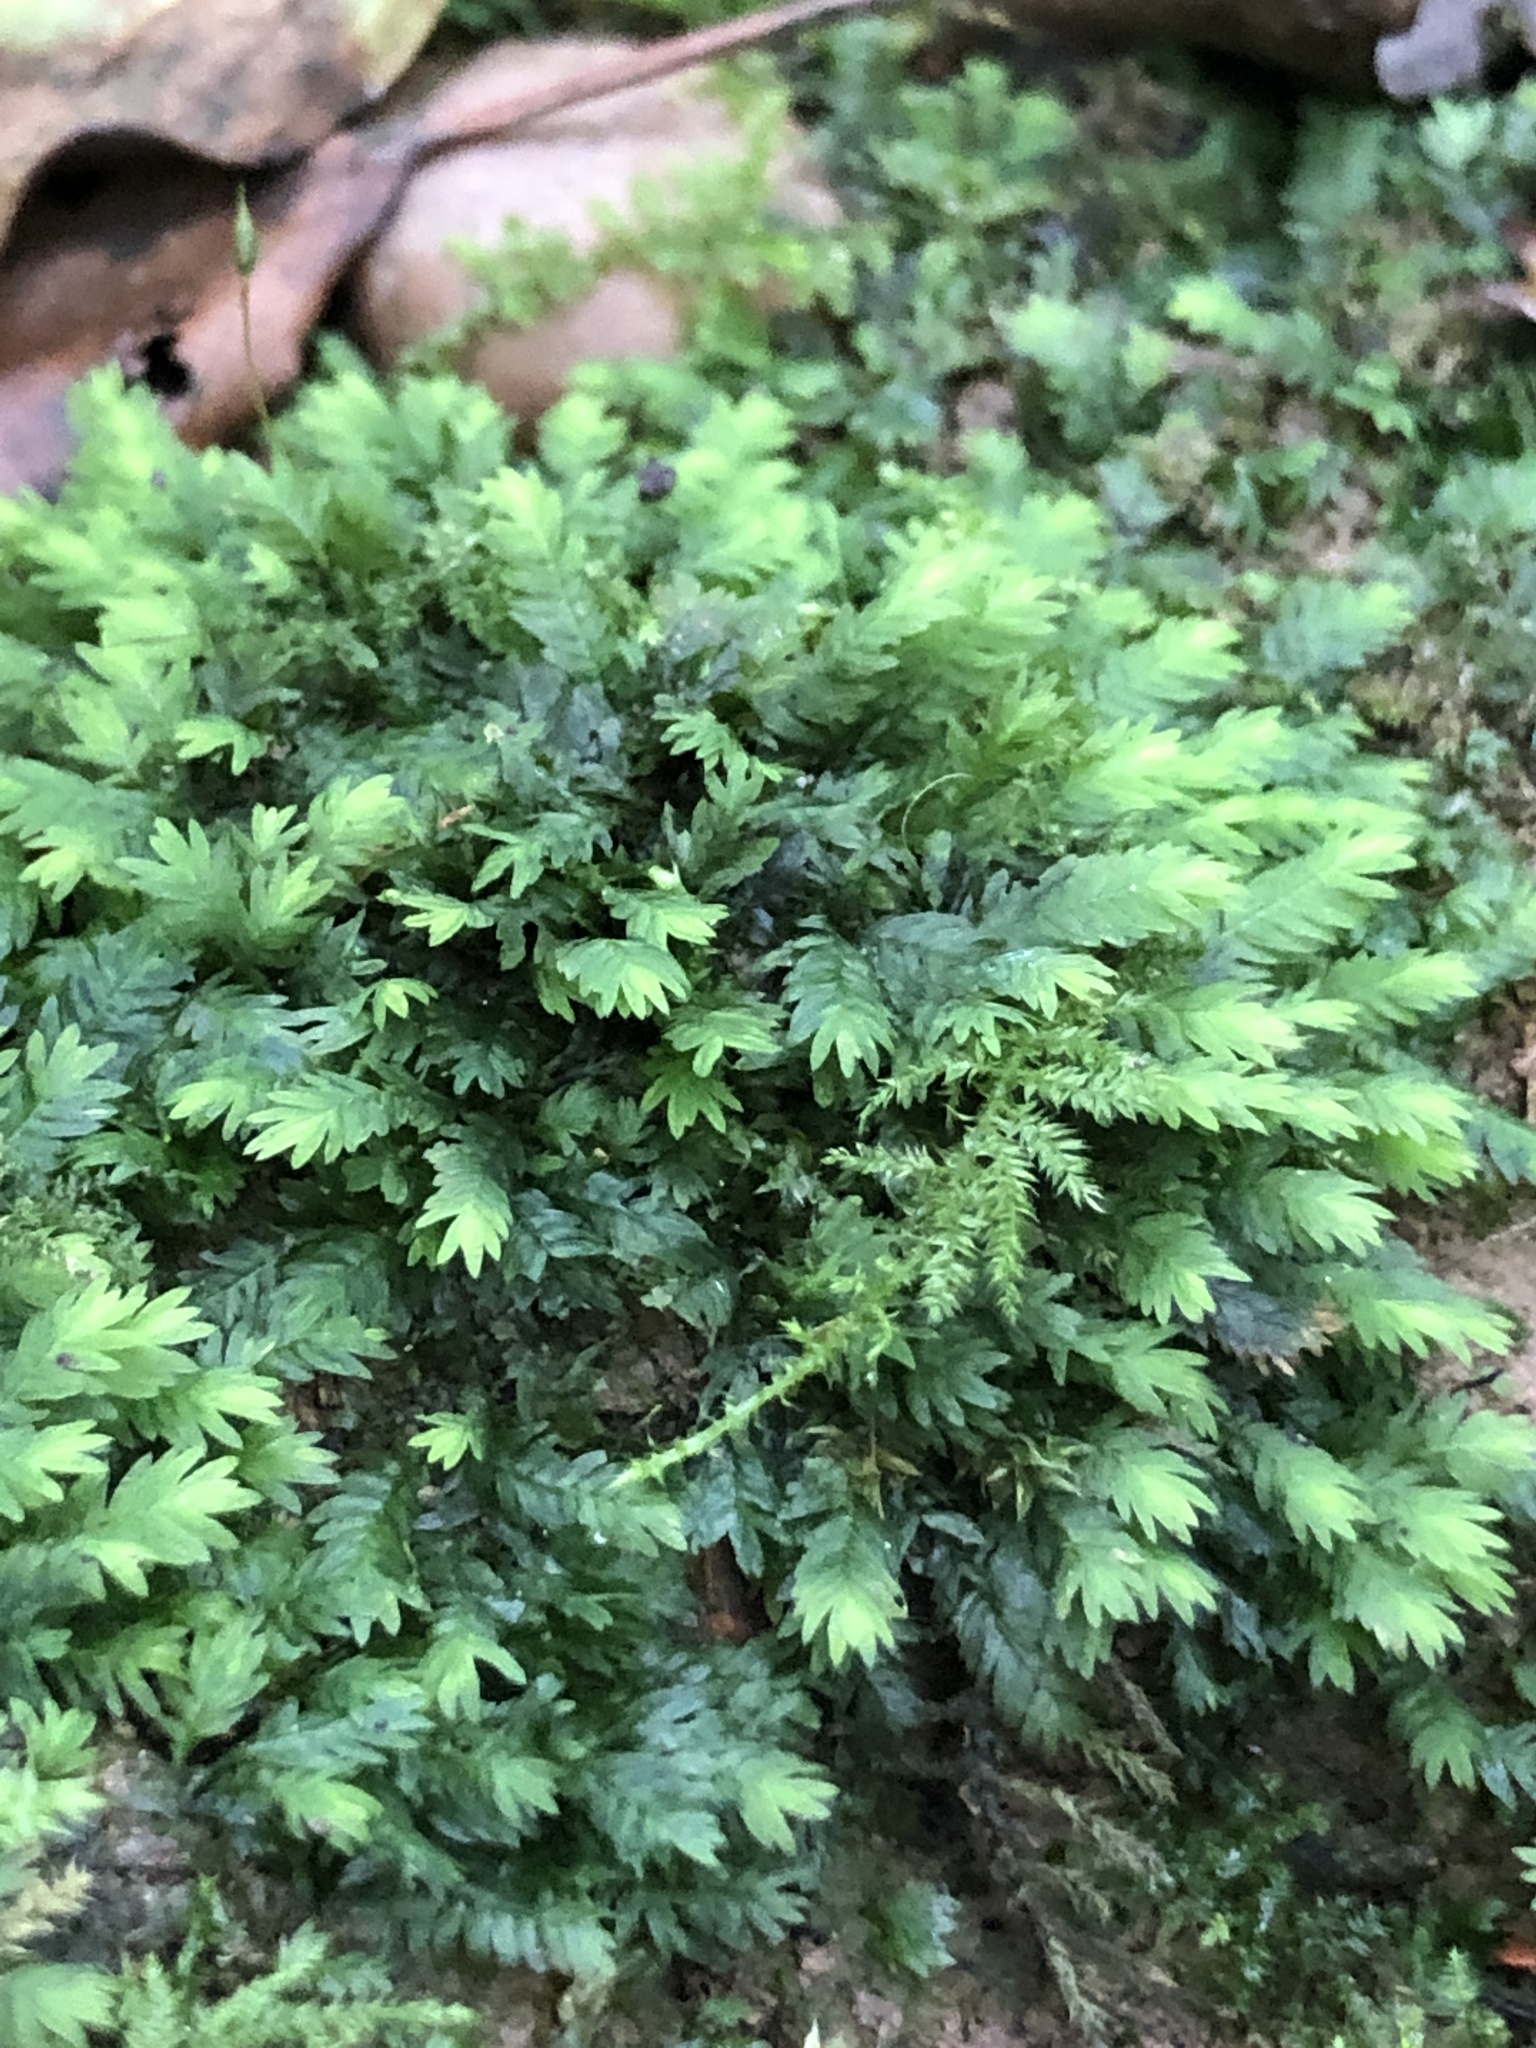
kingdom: Plantae
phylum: Bryophyta
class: Bryopsida
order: Dicranales
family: Fissidentaceae
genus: Fissidens
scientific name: Fissidens taxifolius
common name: Yew-leaved pocket moss
